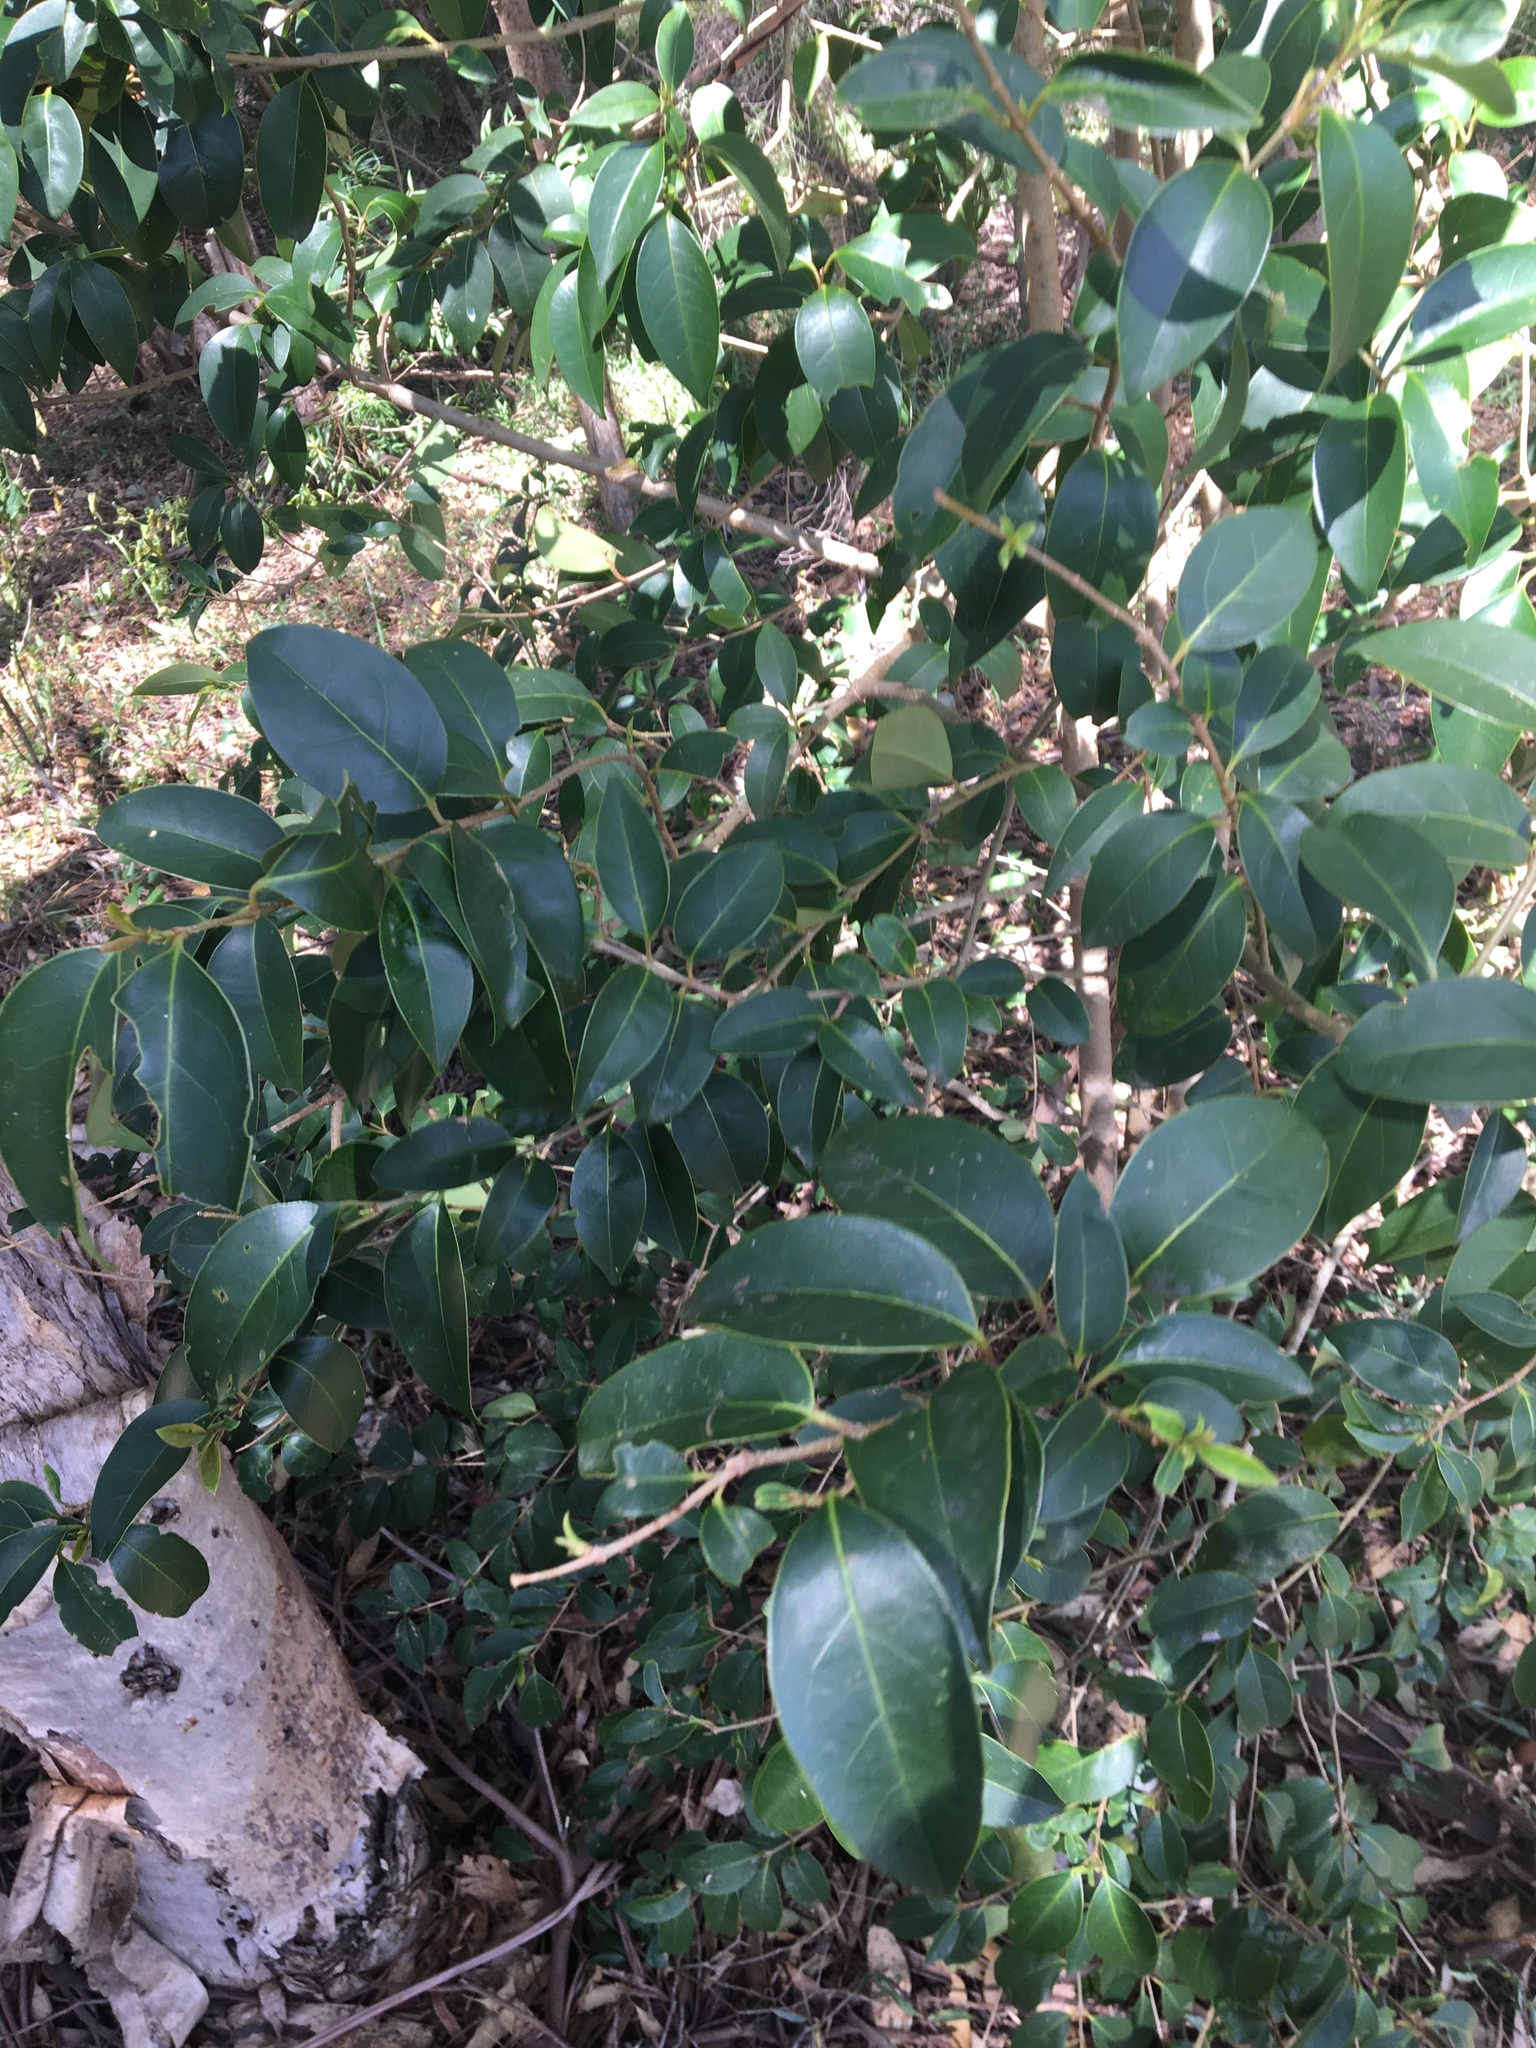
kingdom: Plantae
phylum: Tracheophyta
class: Magnoliopsida
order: Lamiales
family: Oleaceae
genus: Ligustrum
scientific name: Ligustrum lucidum
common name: Glossy privet
